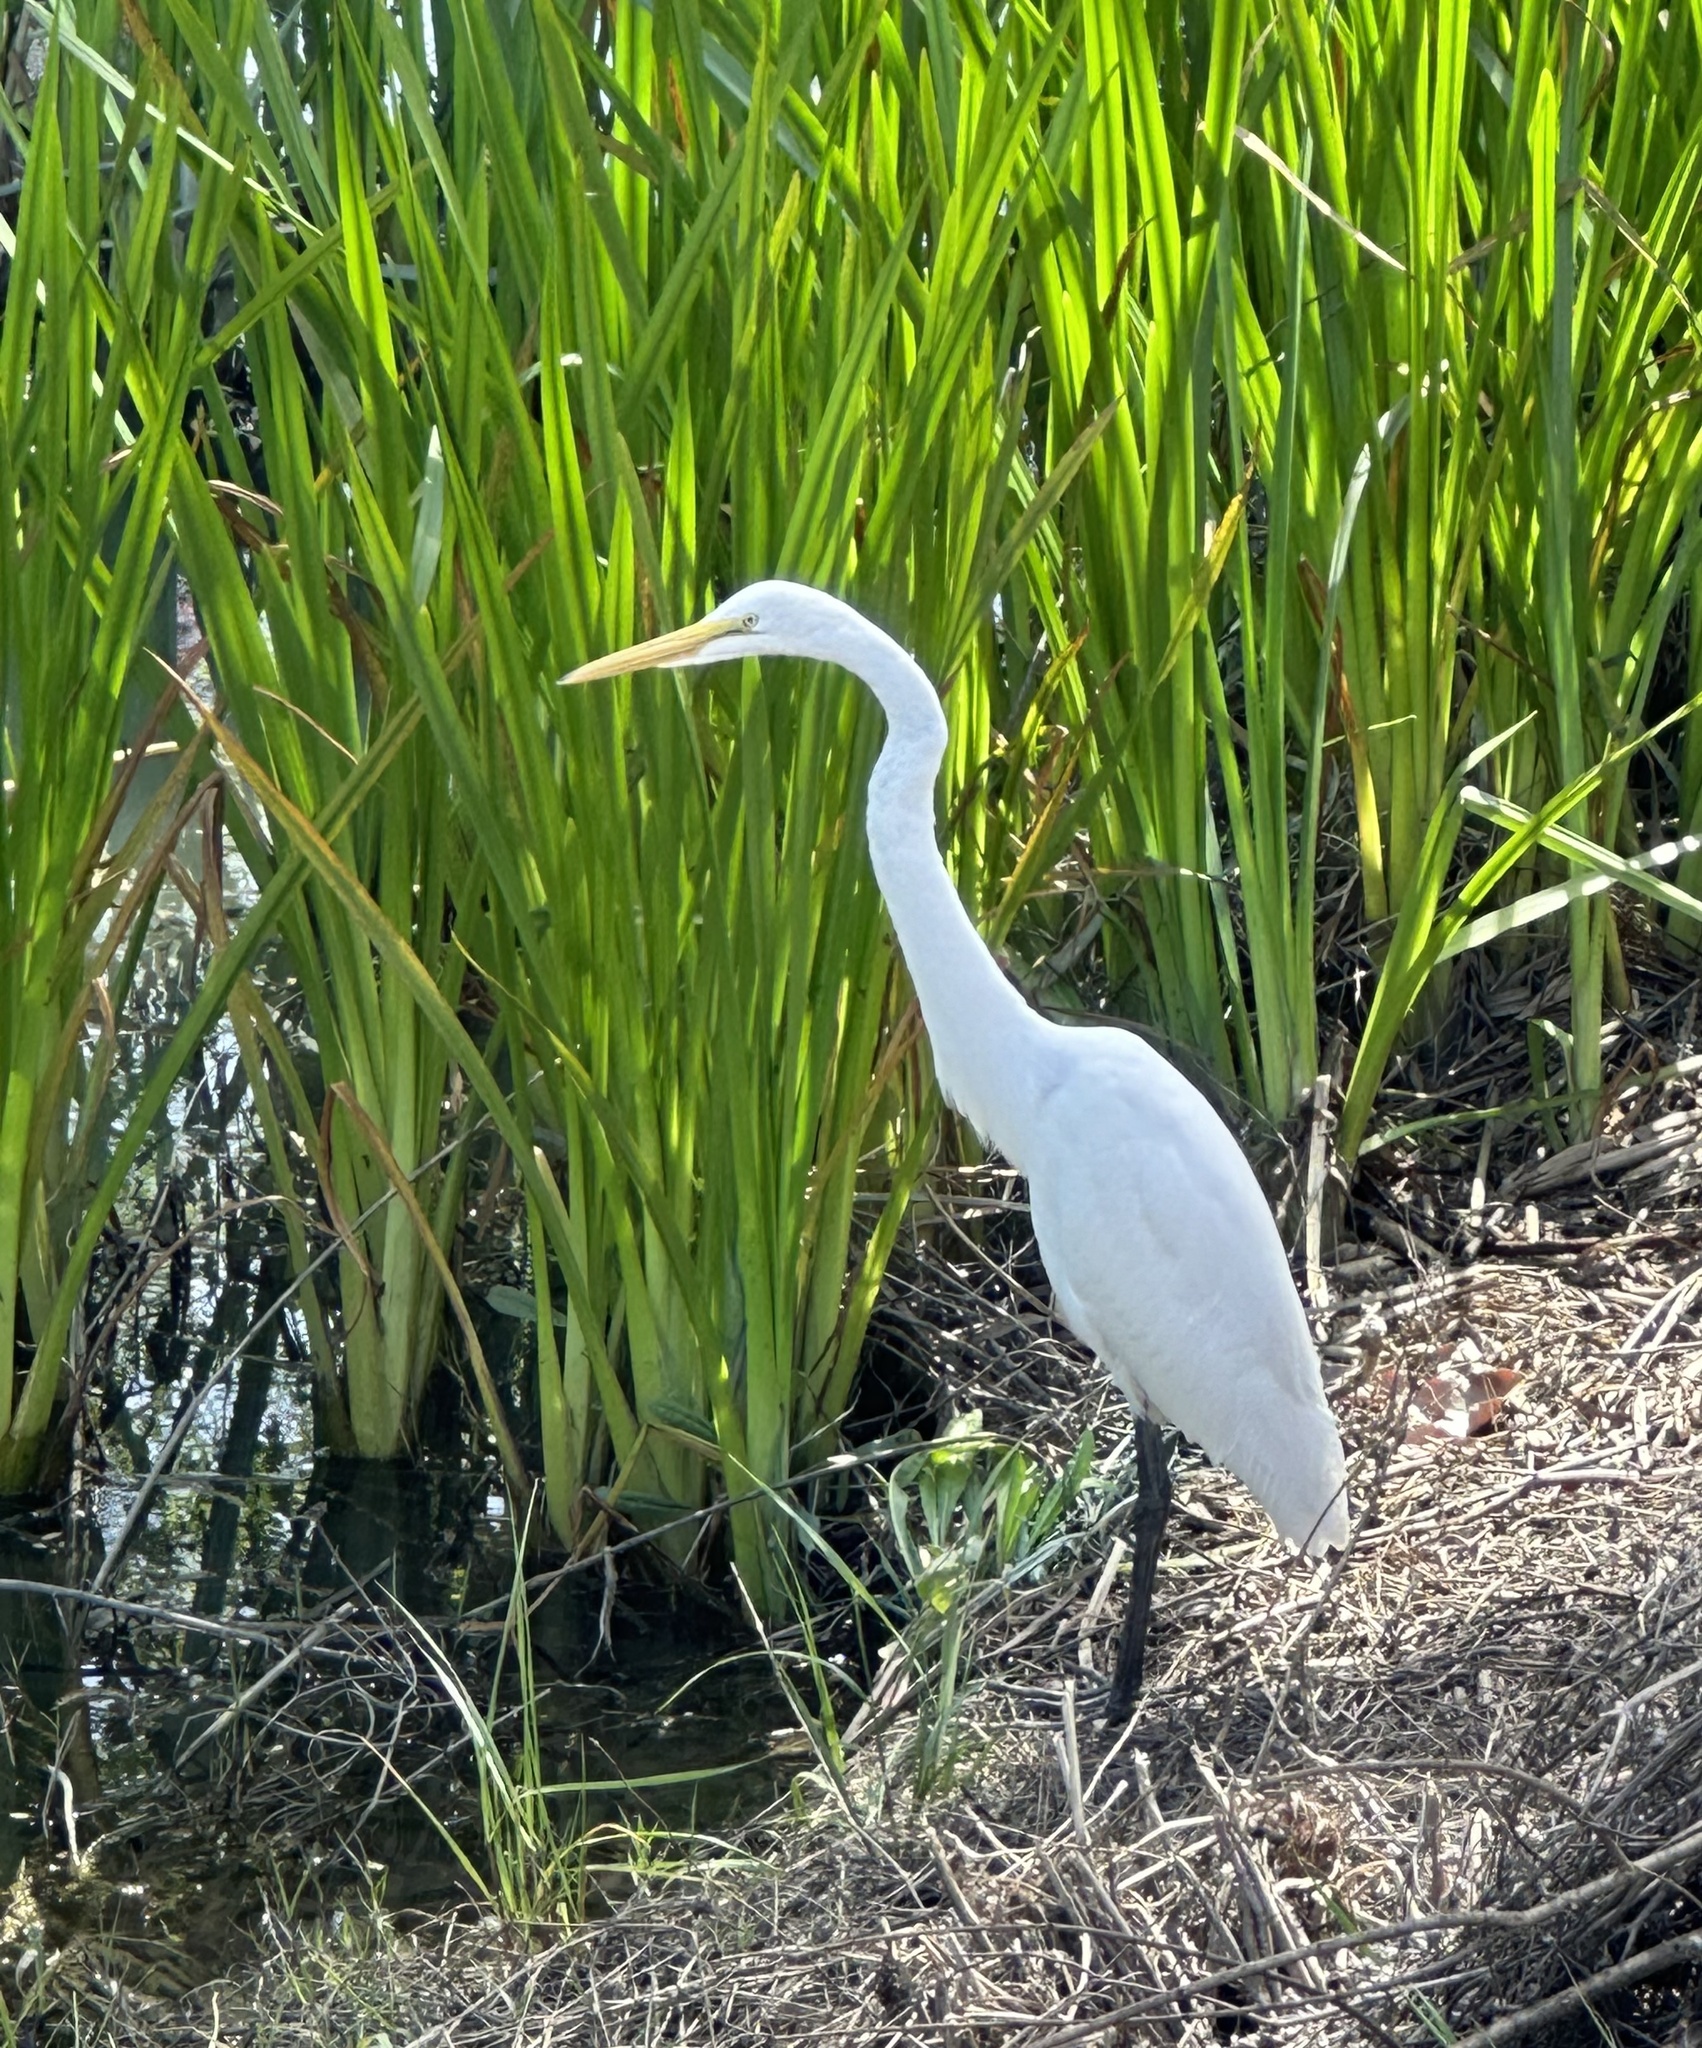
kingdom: Animalia
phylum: Chordata
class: Aves
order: Pelecaniformes
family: Ardeidae
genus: Ardea
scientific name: Ardea alba
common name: Great egret
